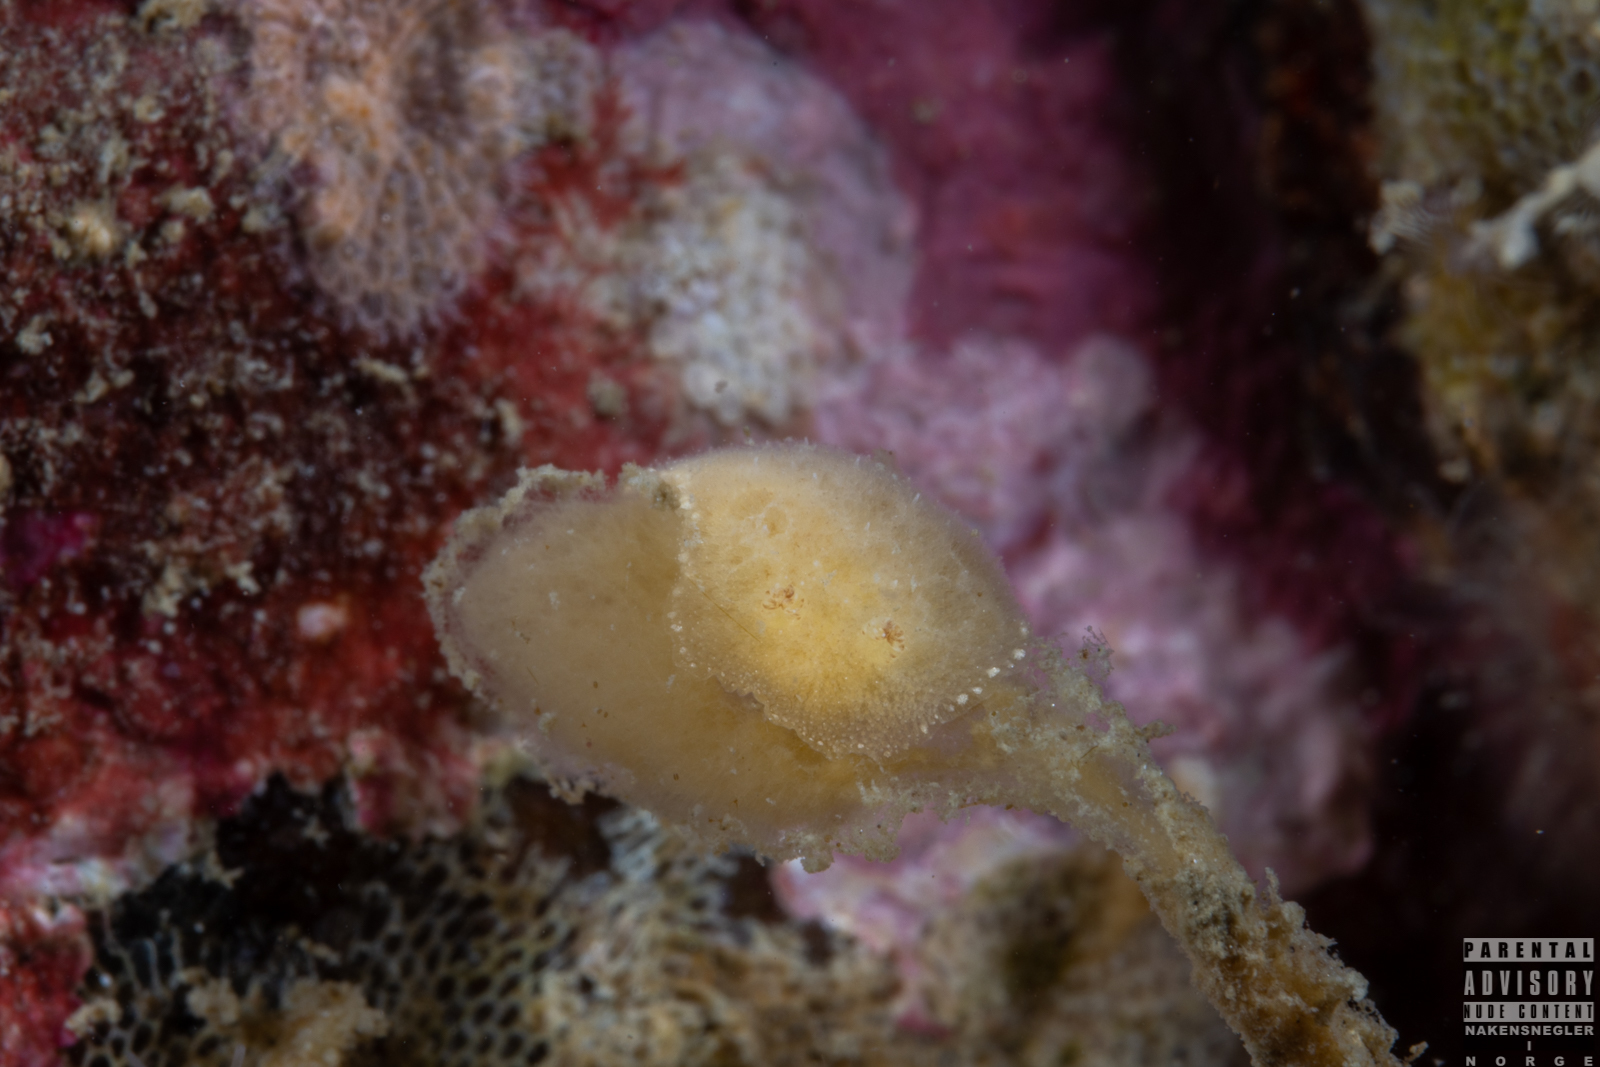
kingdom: Animalia
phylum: Mollusca
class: Gastropoda
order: Nudibranchia
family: Discodorididae
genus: Jorunna
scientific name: Jorunna tomentosa
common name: Grey sea slug
